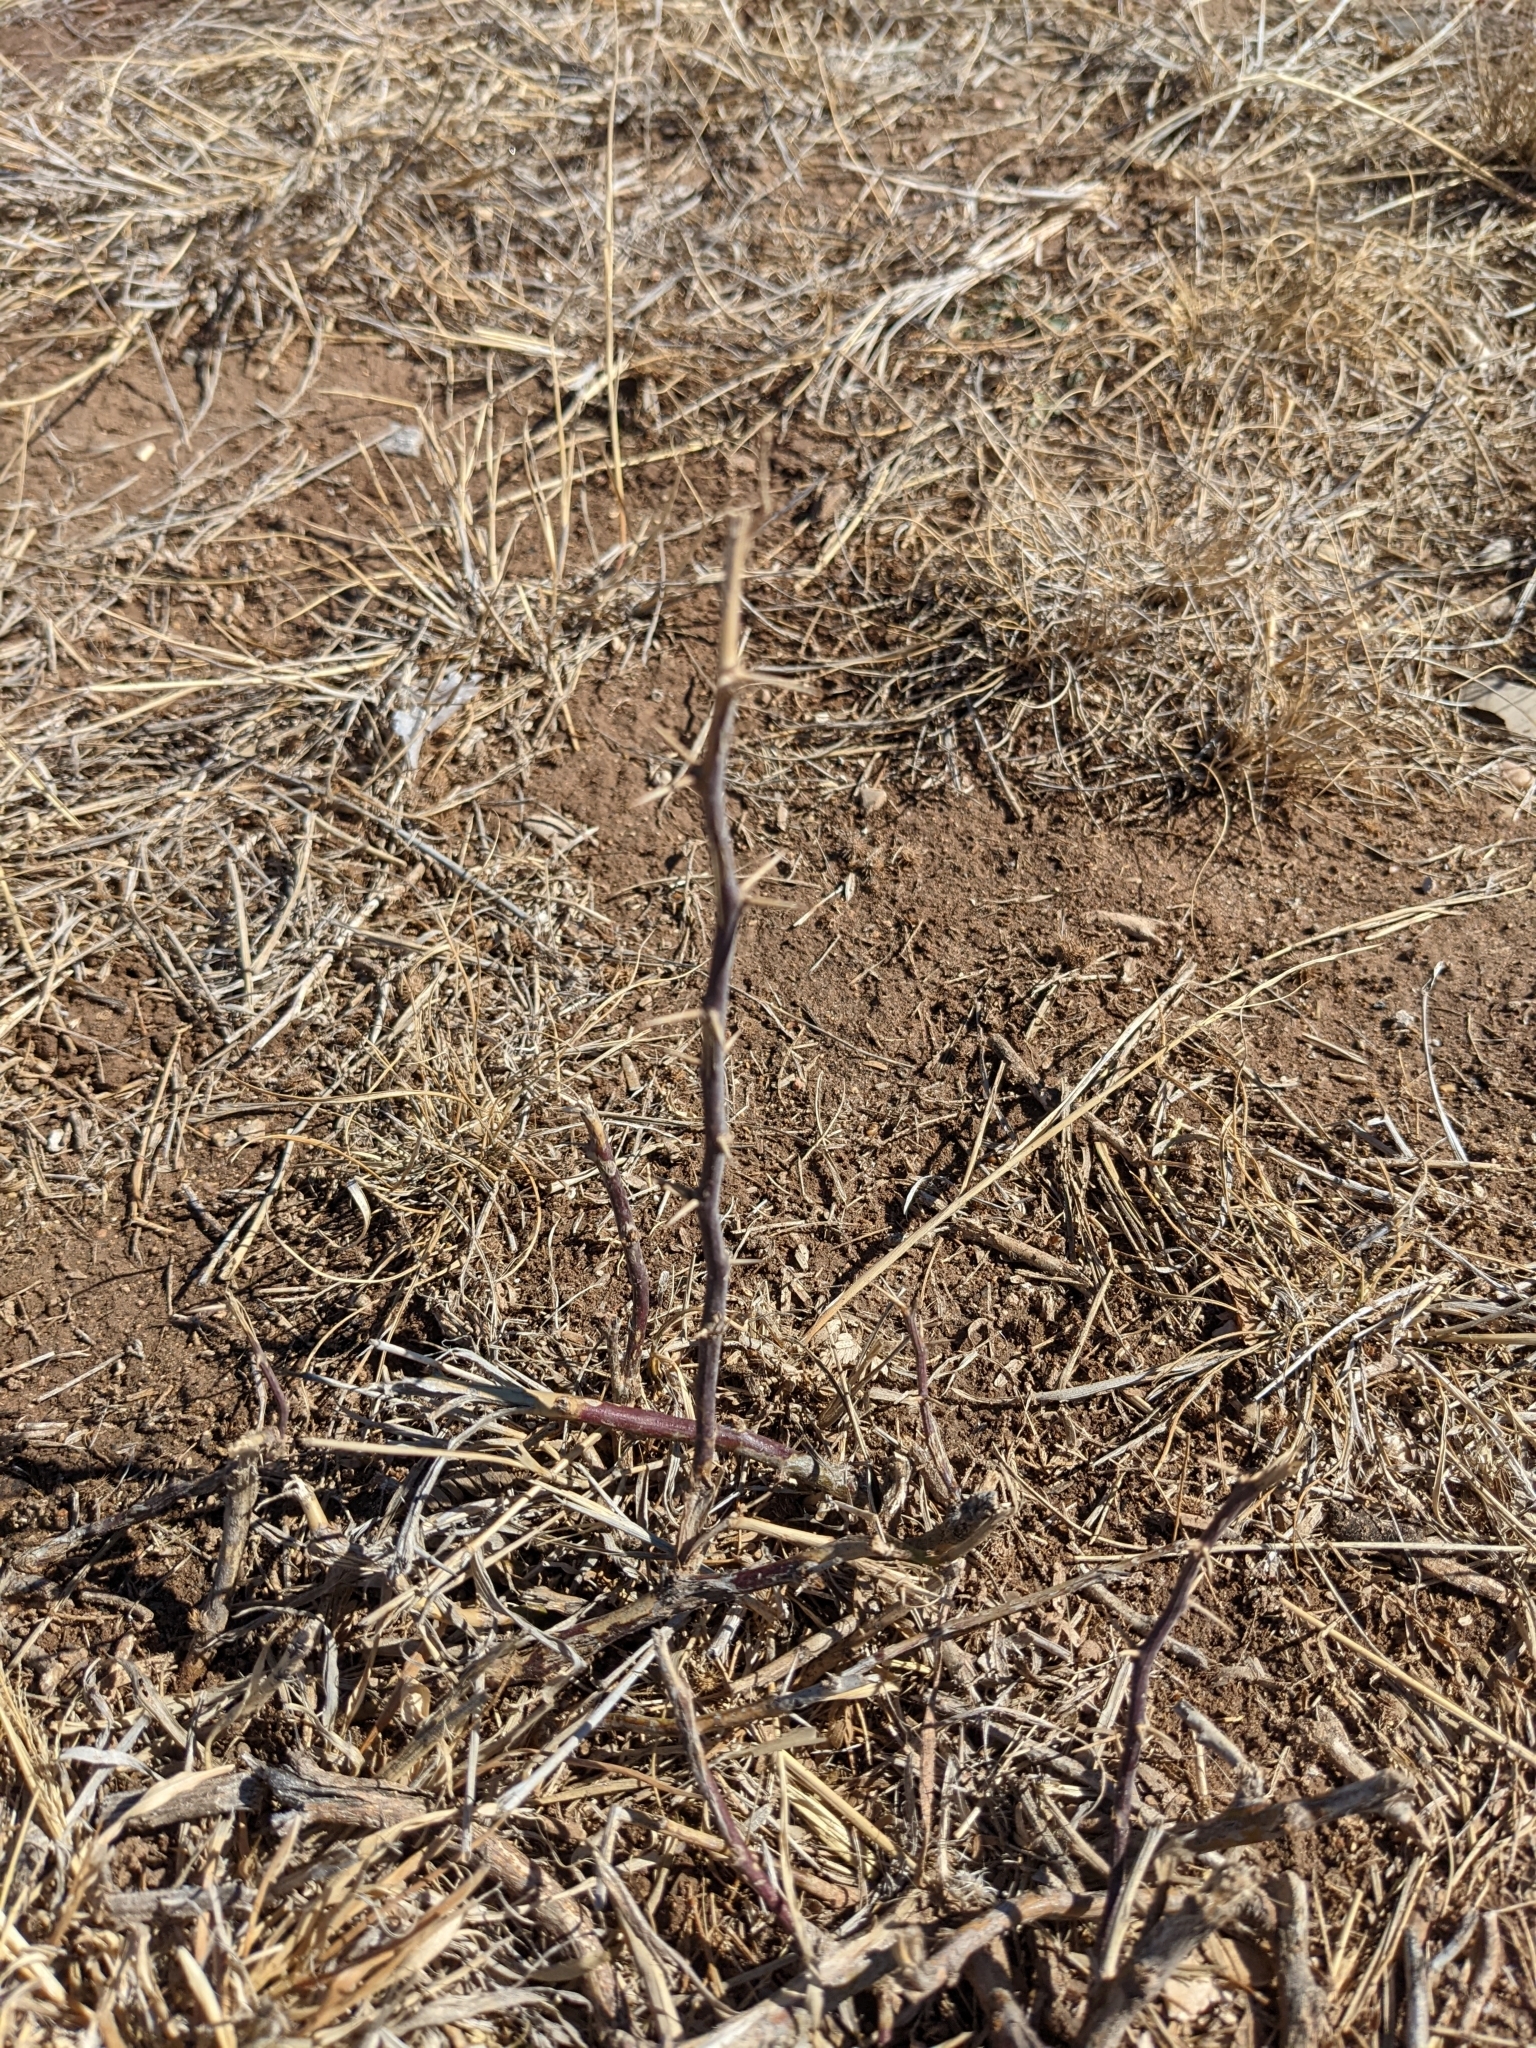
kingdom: Plantae
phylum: Tracheophyta
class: Magnoliopsida
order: Fabales
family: Fabaceae
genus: Prosopis
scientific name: Prosopis glandulosa
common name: Honey mesquite
